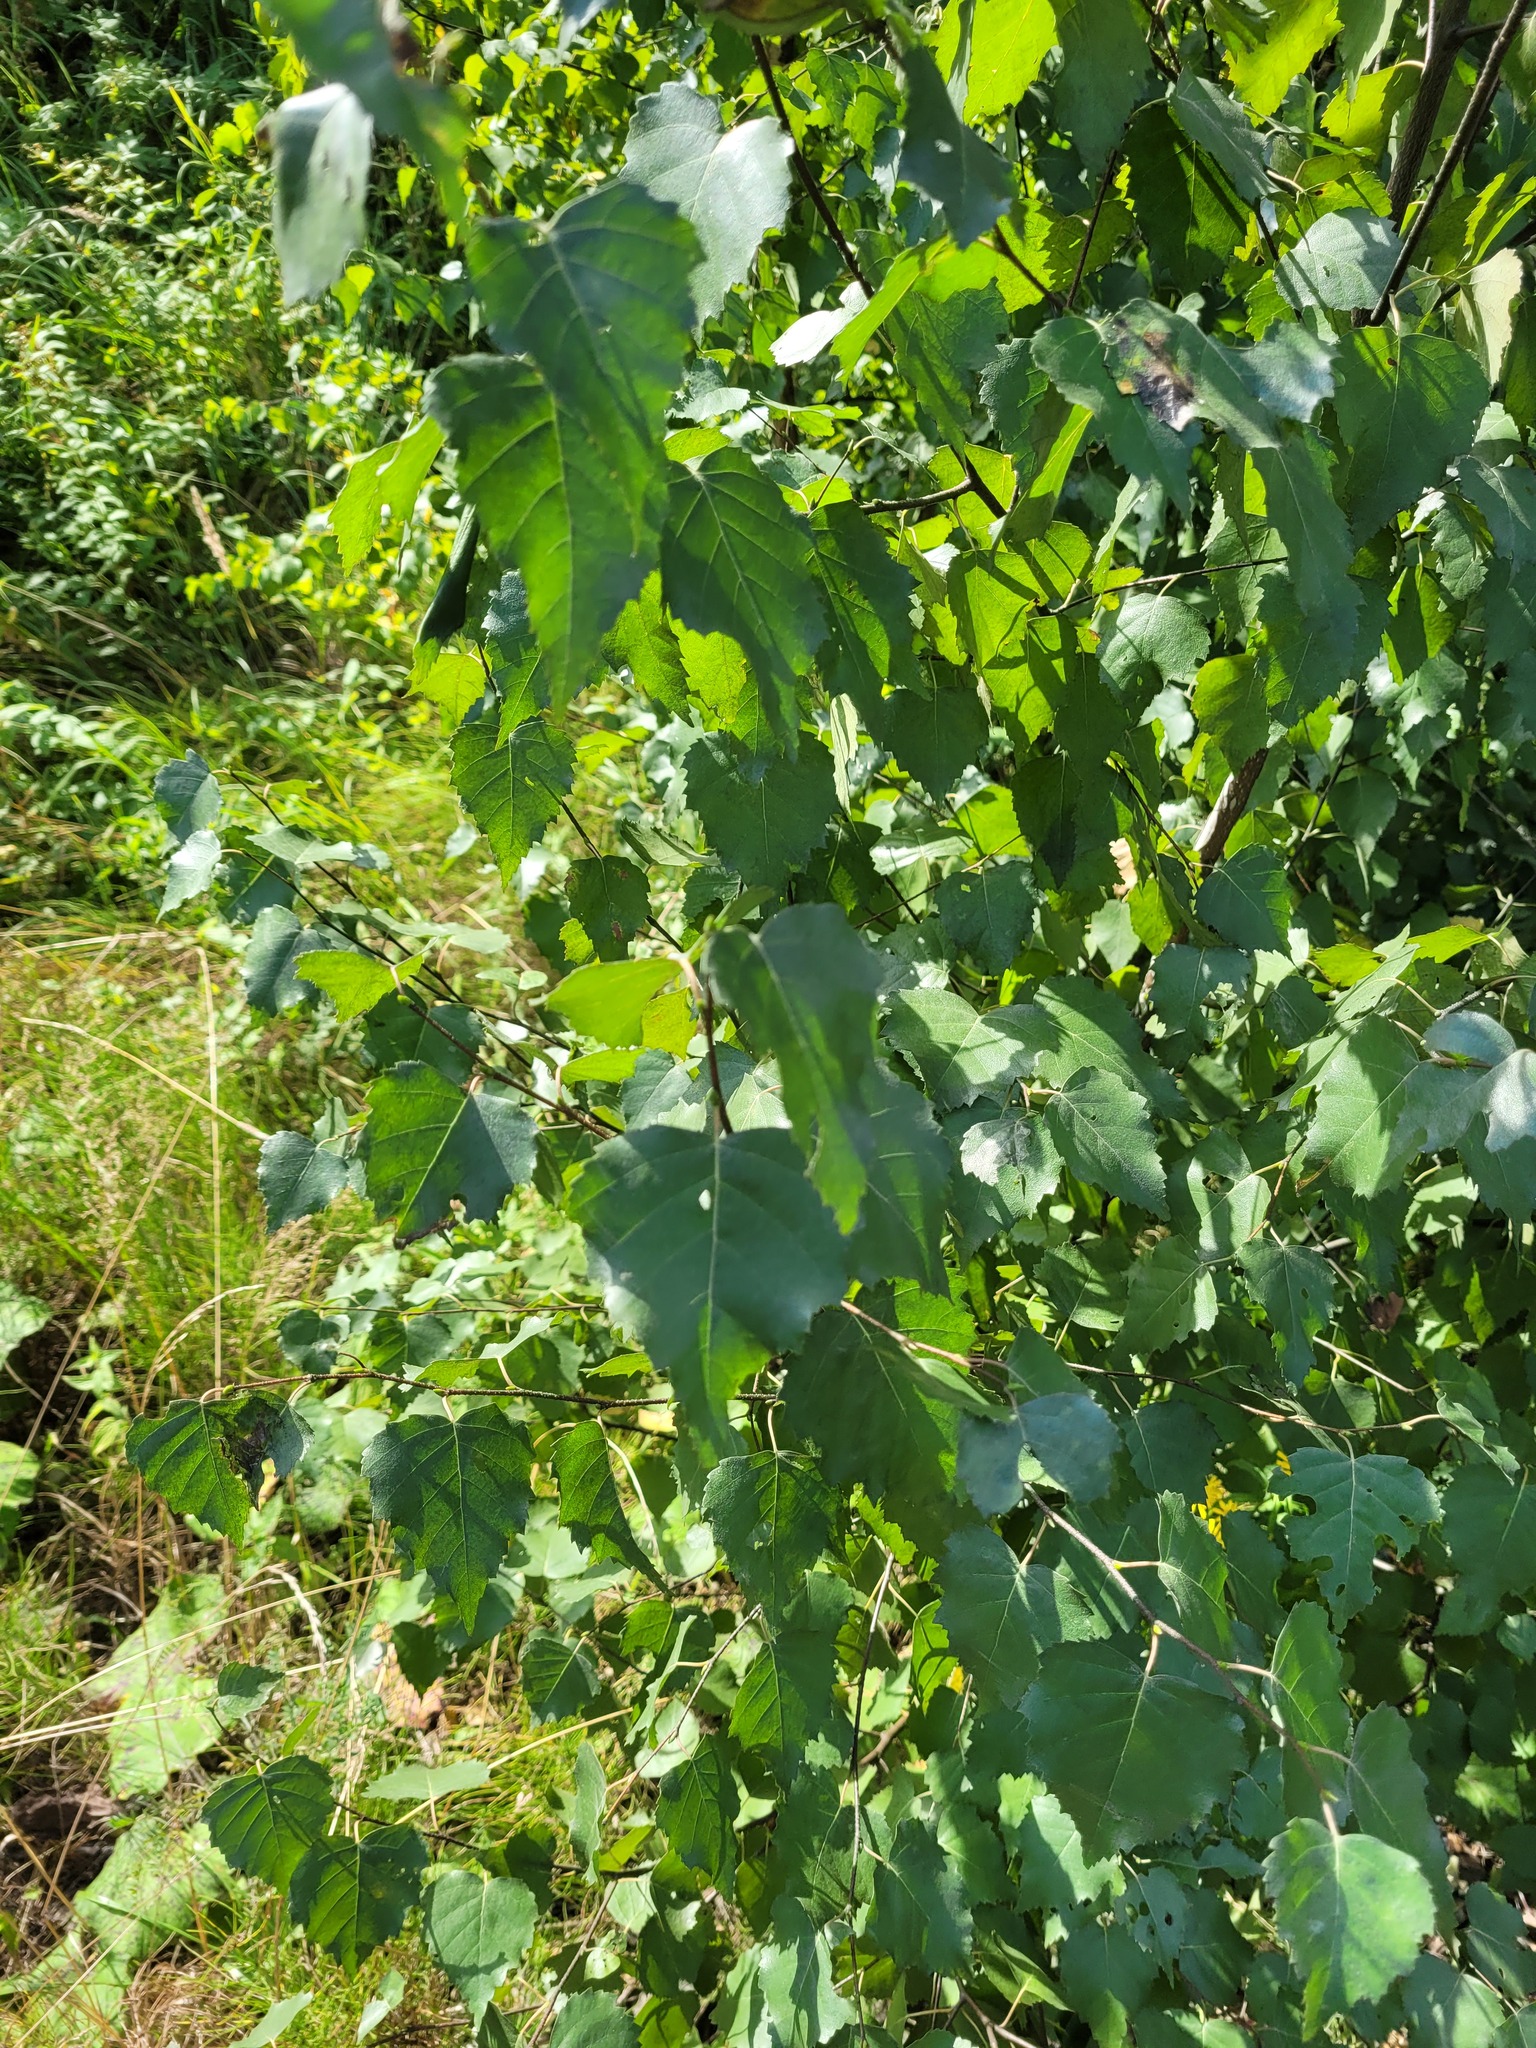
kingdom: Plantae
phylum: Tracheophyta
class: Magnoliopsida
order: Fagales
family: Betulaceae
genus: Betula
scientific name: Betula pendula
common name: Silver birch
